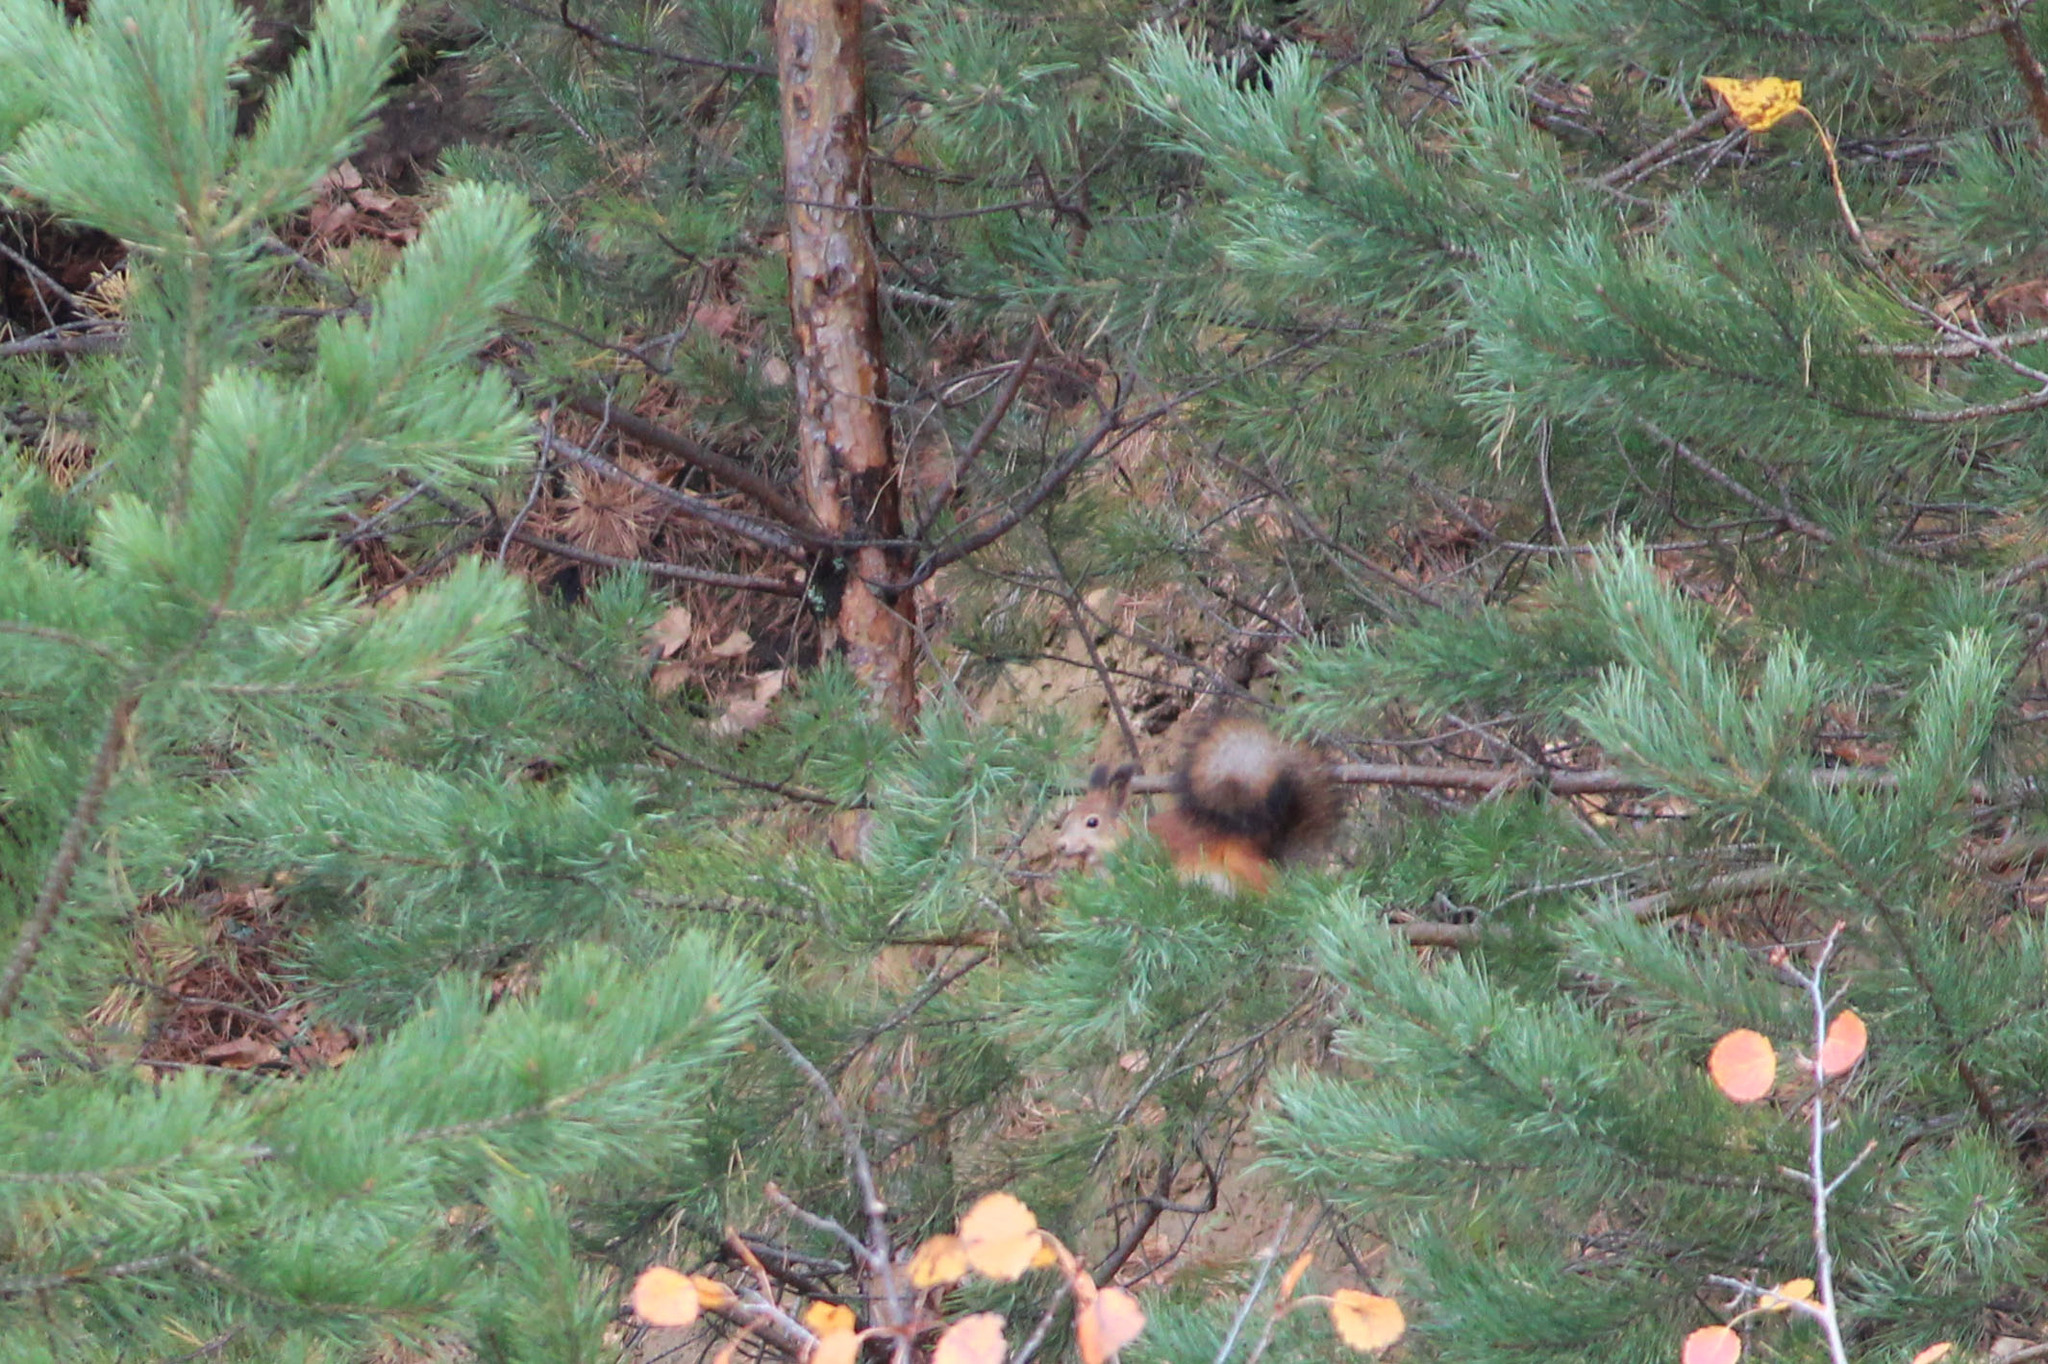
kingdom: Animalia
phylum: Chordata
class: Mammalia
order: Rodentia
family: Sciuridae
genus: Sciurus
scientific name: Sciurus vulgaris
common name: Eurasian red squirrel
